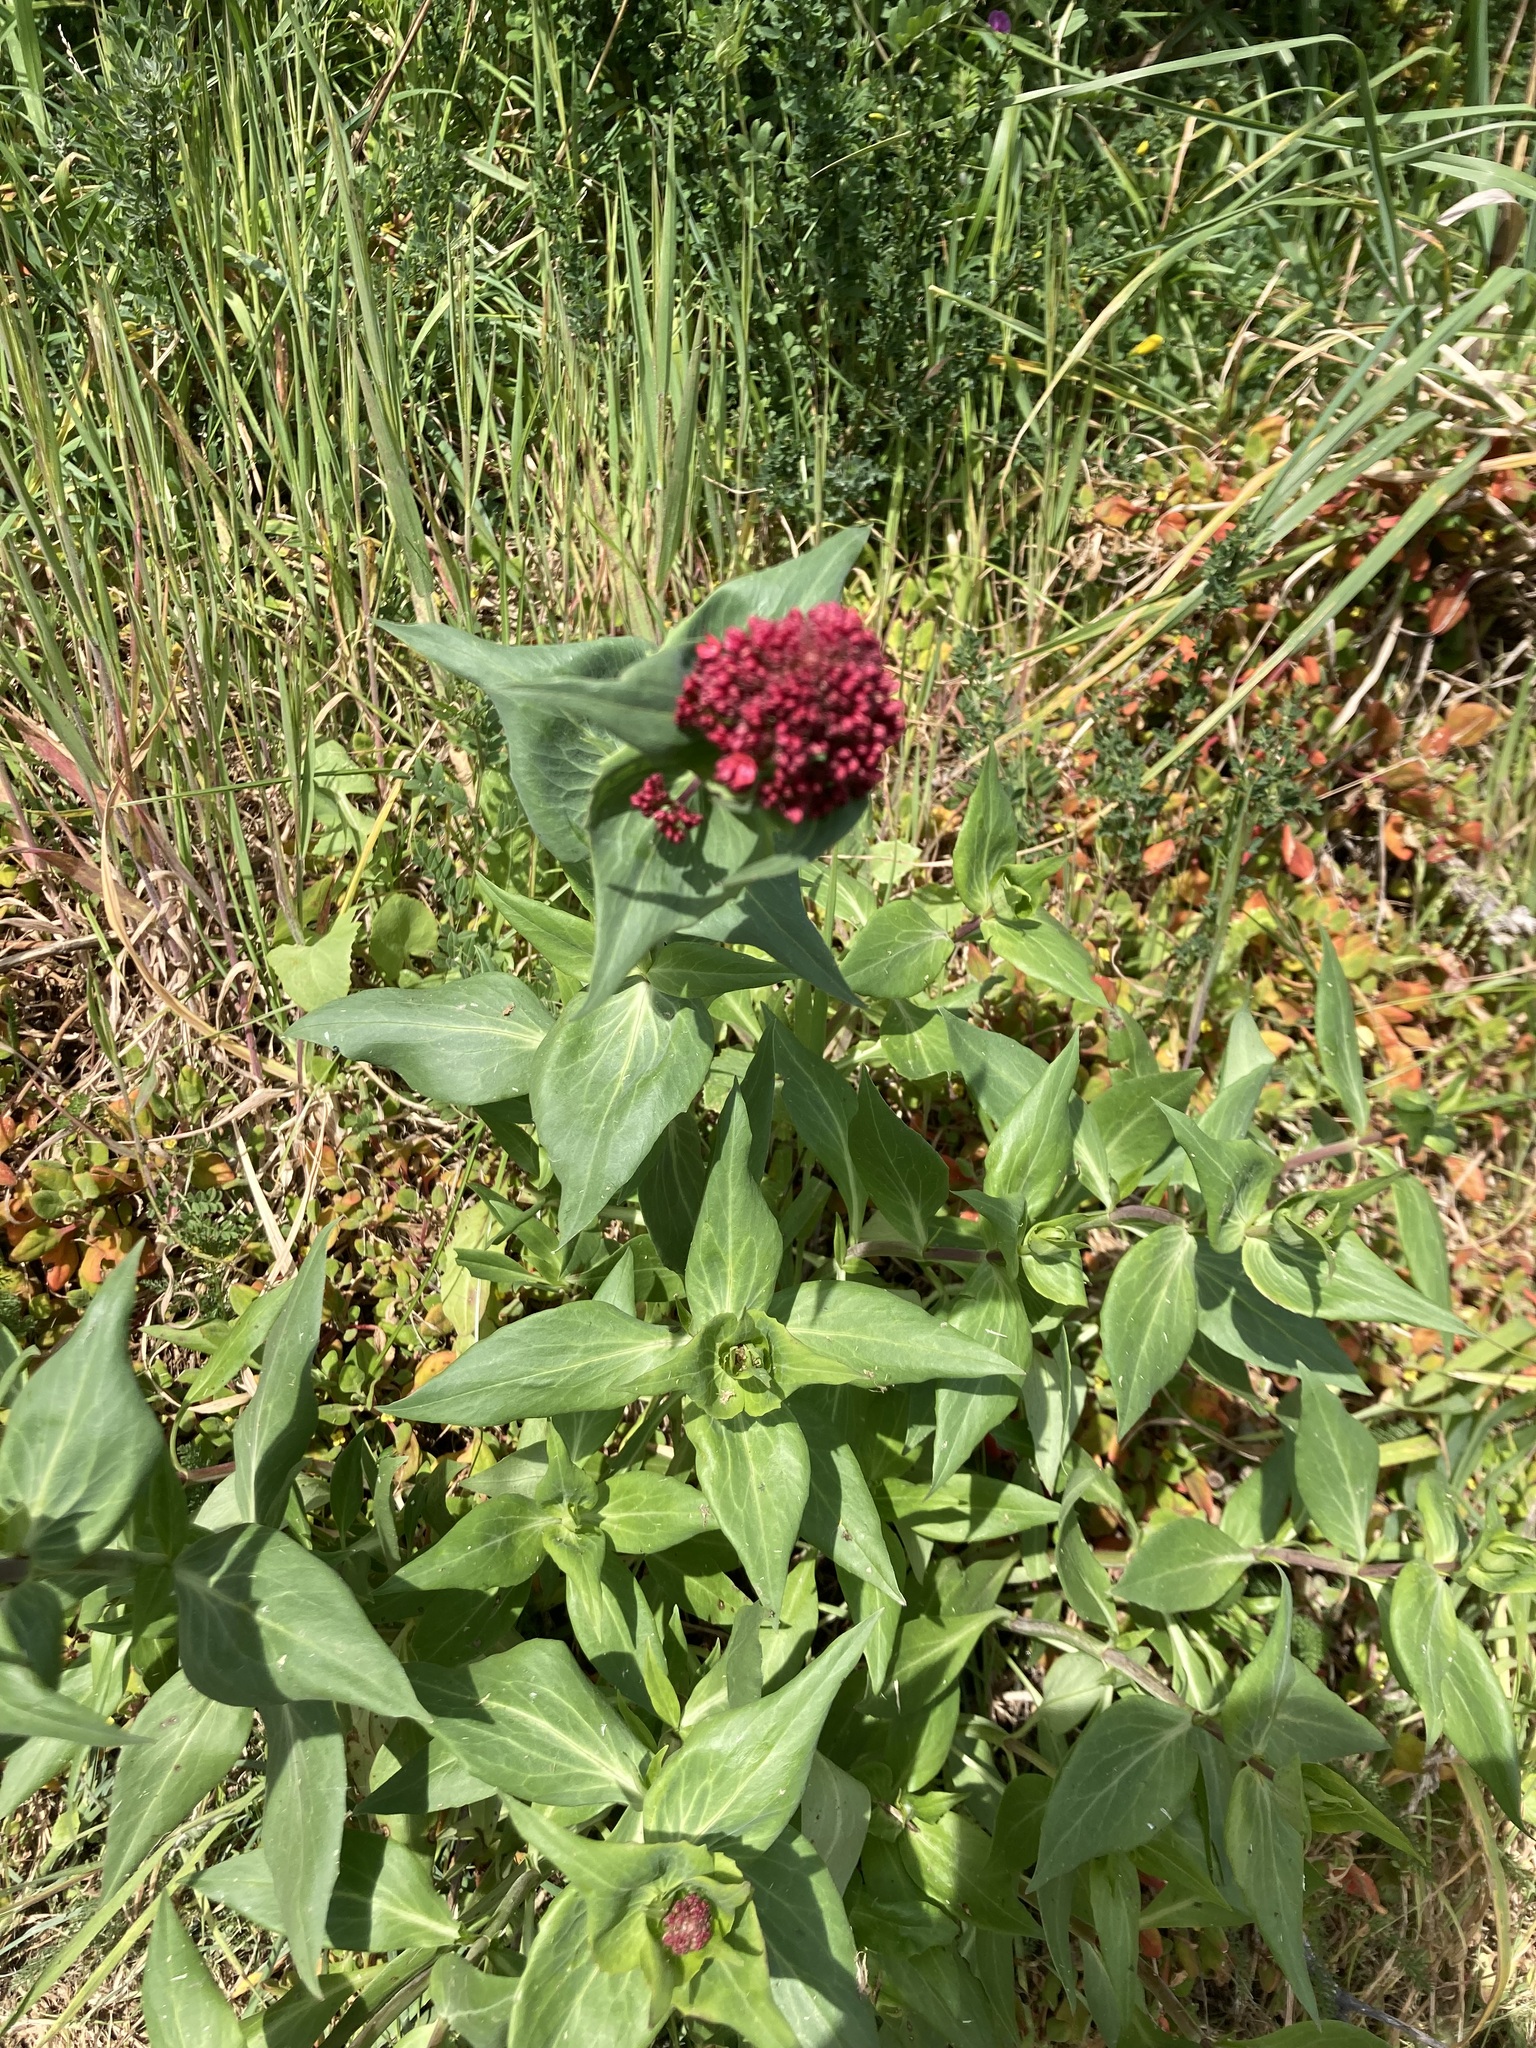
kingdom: Plantae
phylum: Tracheophyta
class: Magnoliopsida
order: Dipsacales
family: Caprifoliaceae
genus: Centranthus
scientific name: Centranthus ruber
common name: Red valerian
